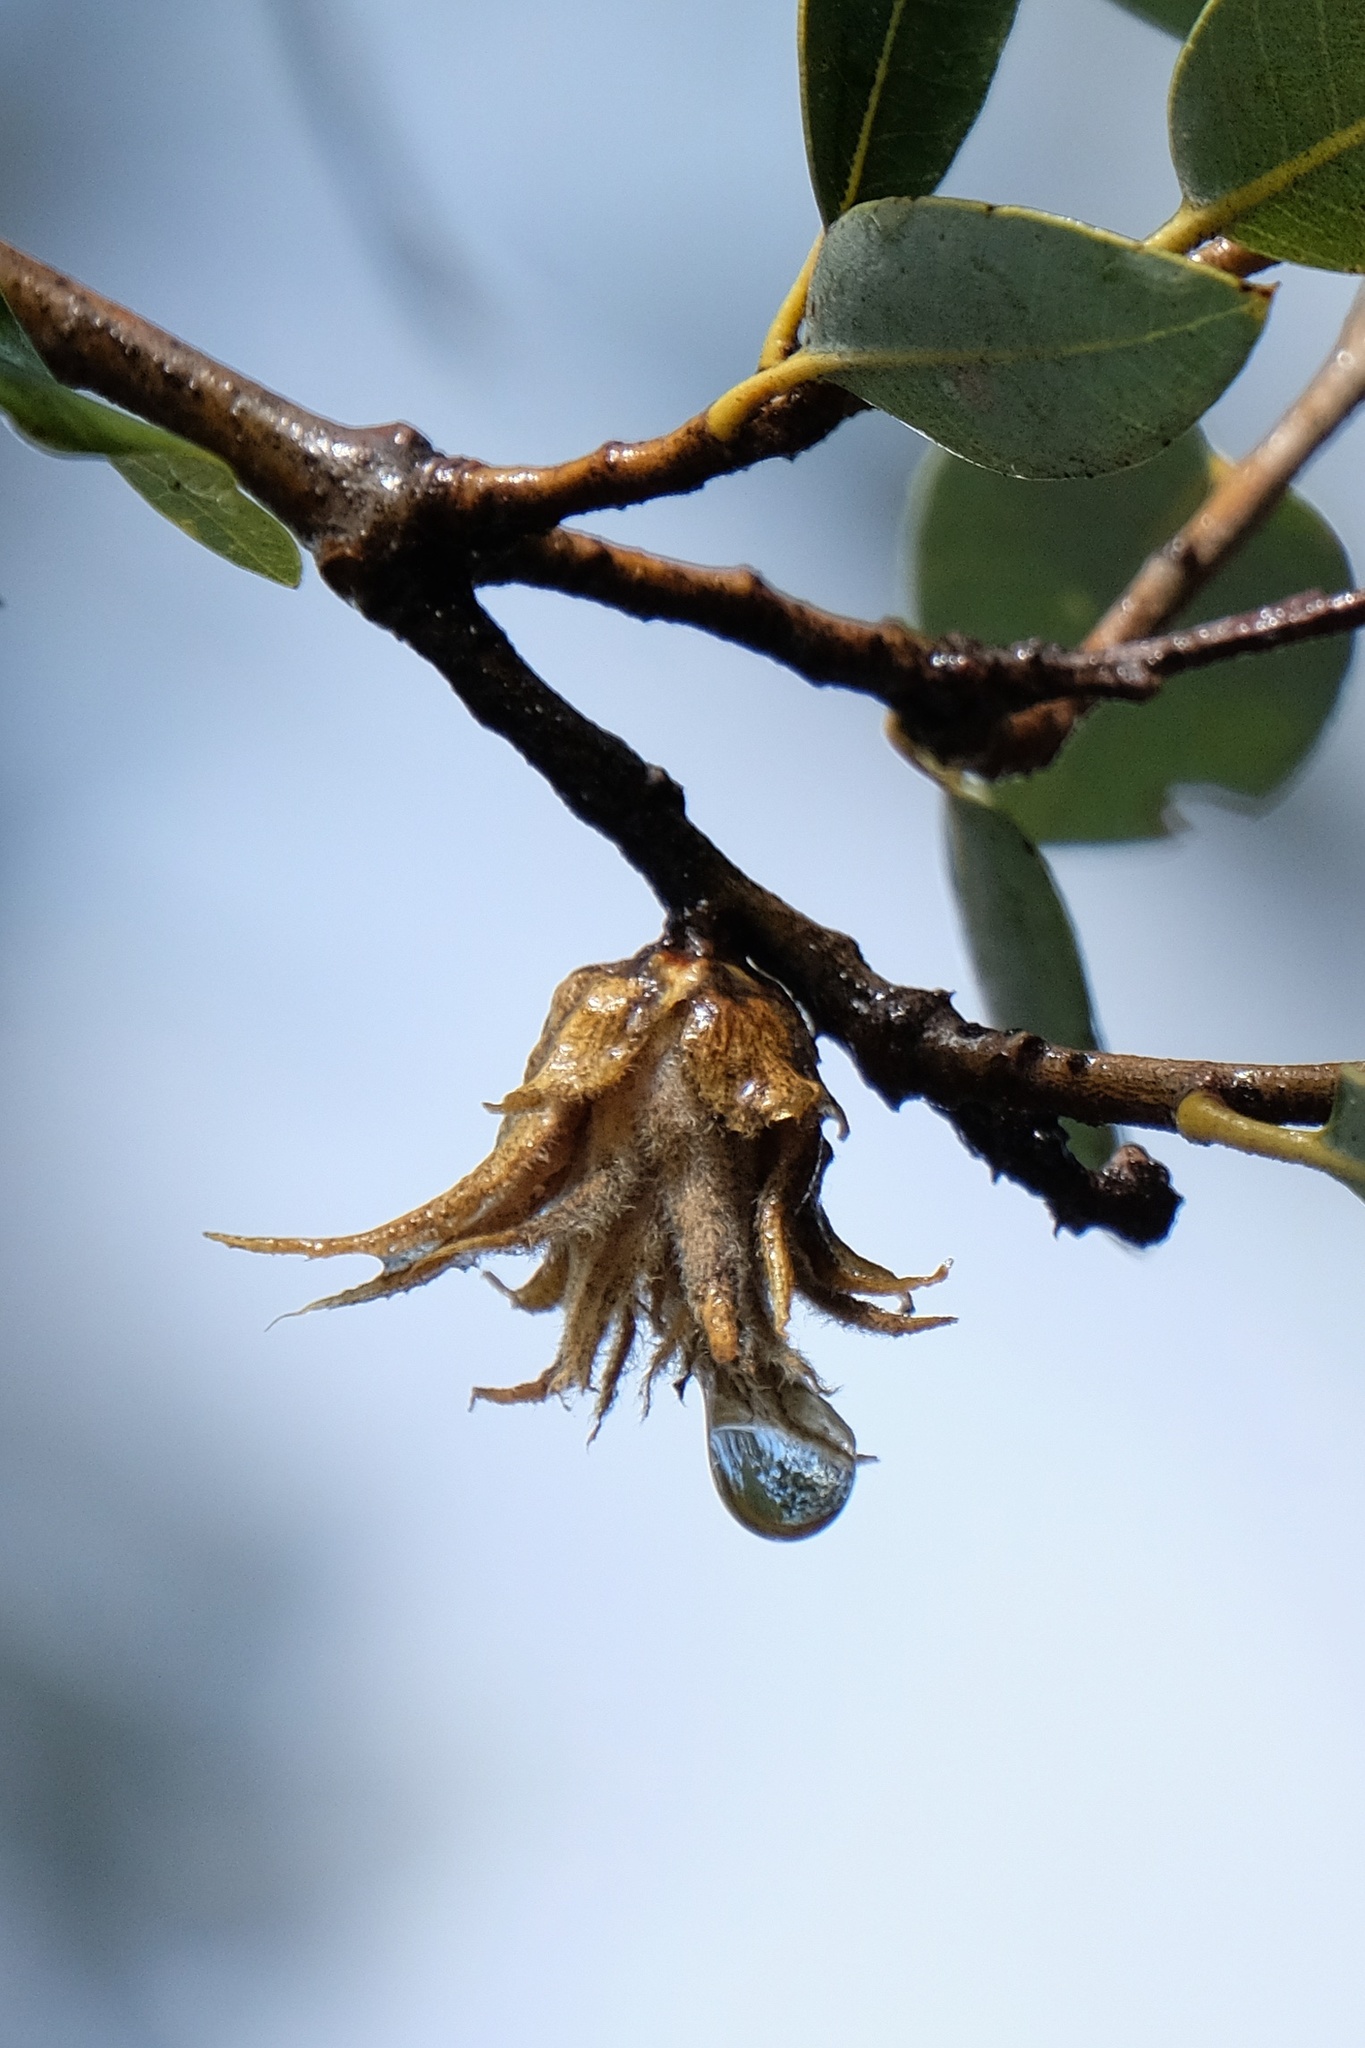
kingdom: Animalia
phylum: Arthropoda
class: Insecta
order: Hymenoptera
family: Cynipidae
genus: Andricus
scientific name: Andricus
